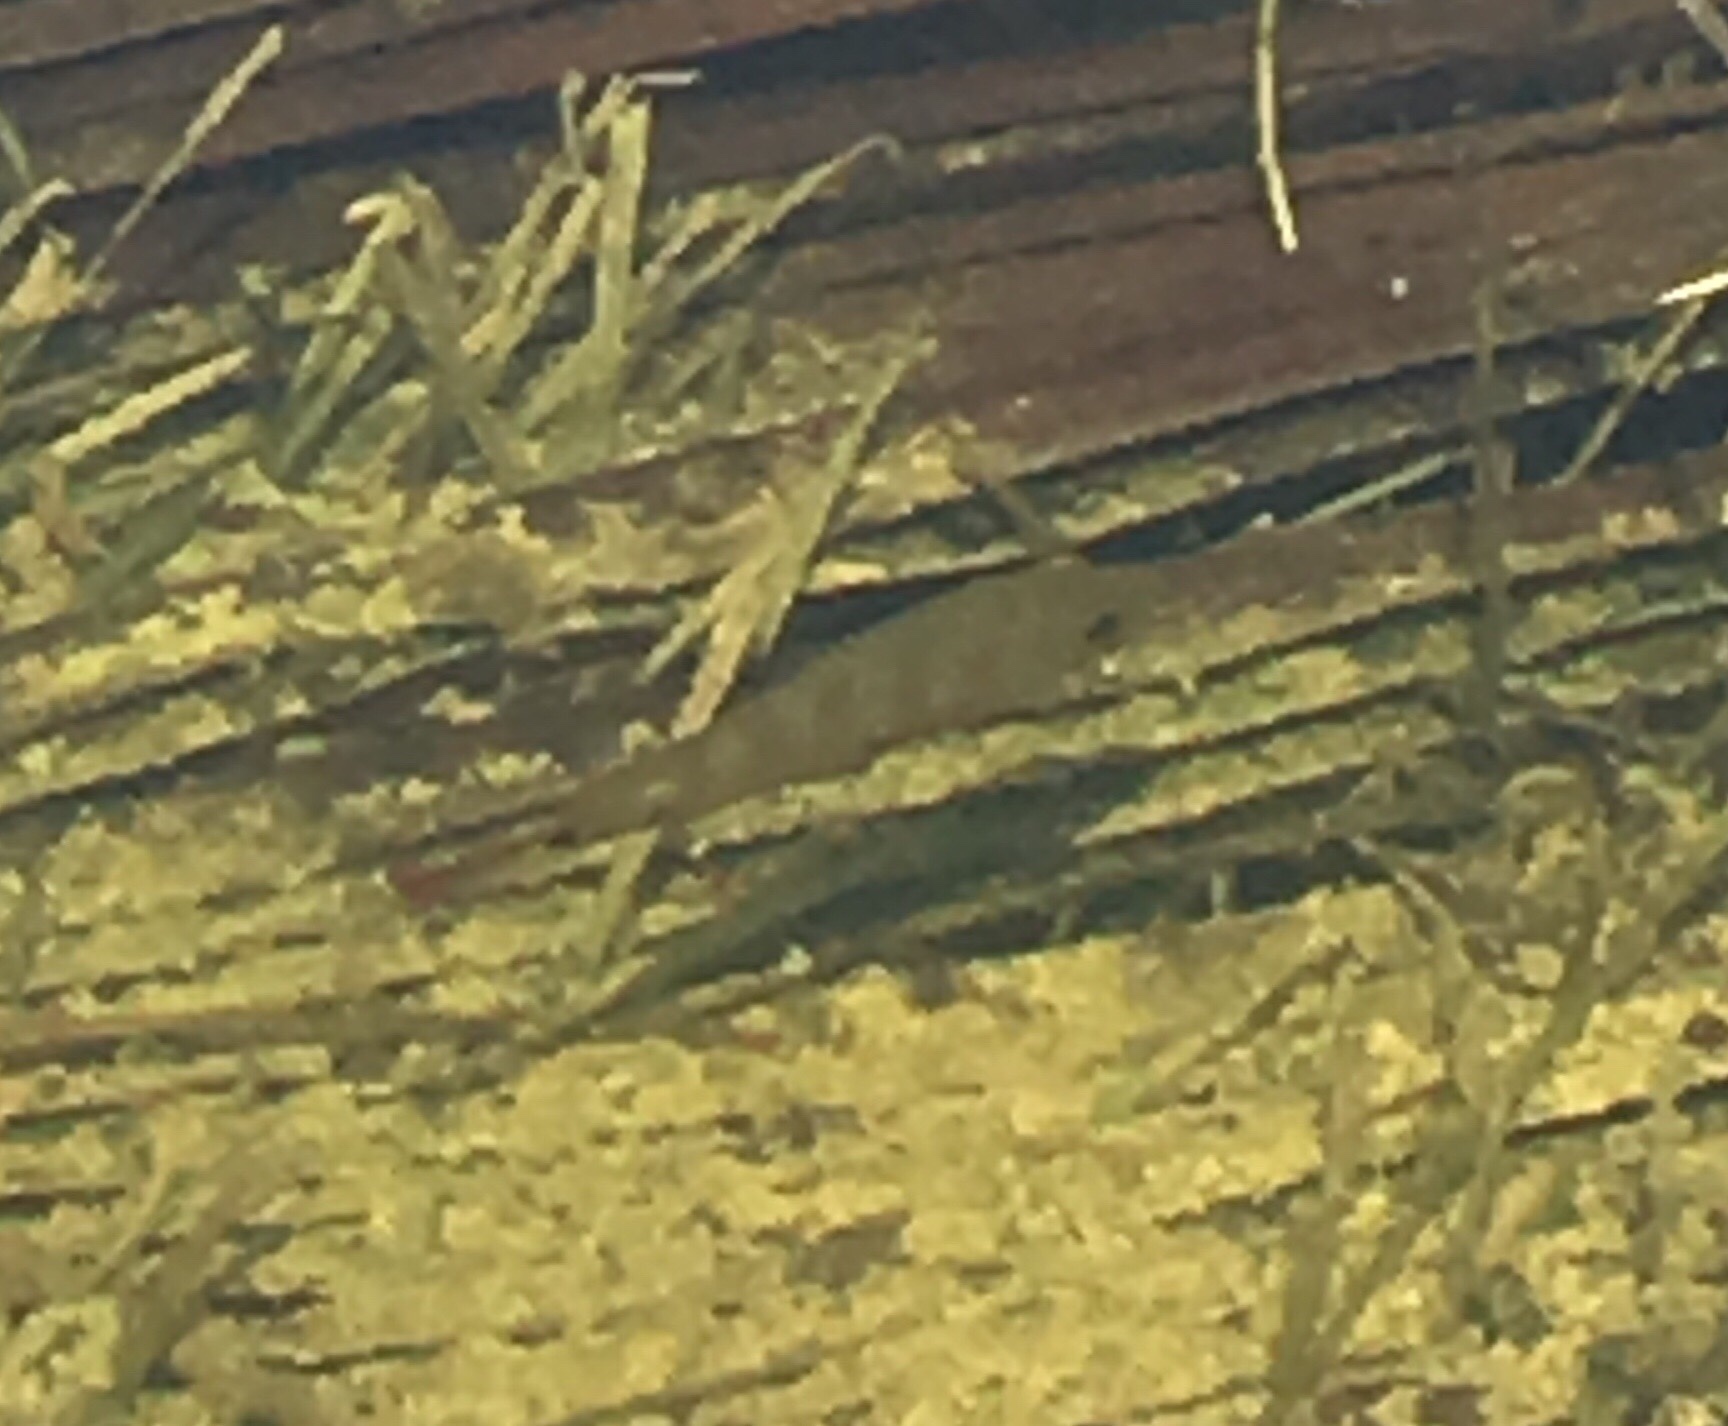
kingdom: Animalia
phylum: Chordata
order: Perciformes
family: Cichlidae
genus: Mayaheros
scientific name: Mayaheros urophthalmus
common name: Mayan cichlid
